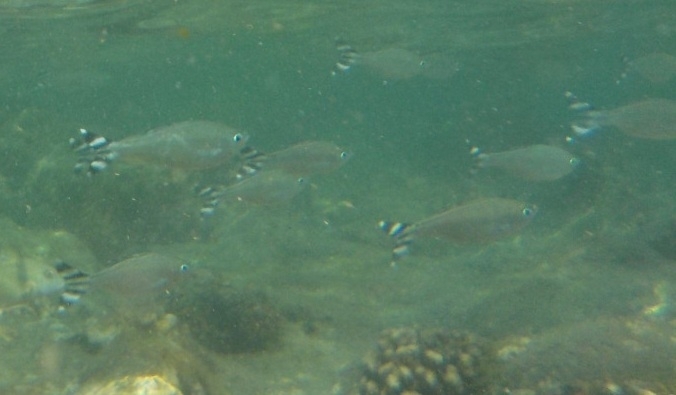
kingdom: Animalia
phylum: Chordata
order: Perciformes
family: Kuhliidae
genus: Kuhlia
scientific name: Kuhlia mugil
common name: Barred flagtail
